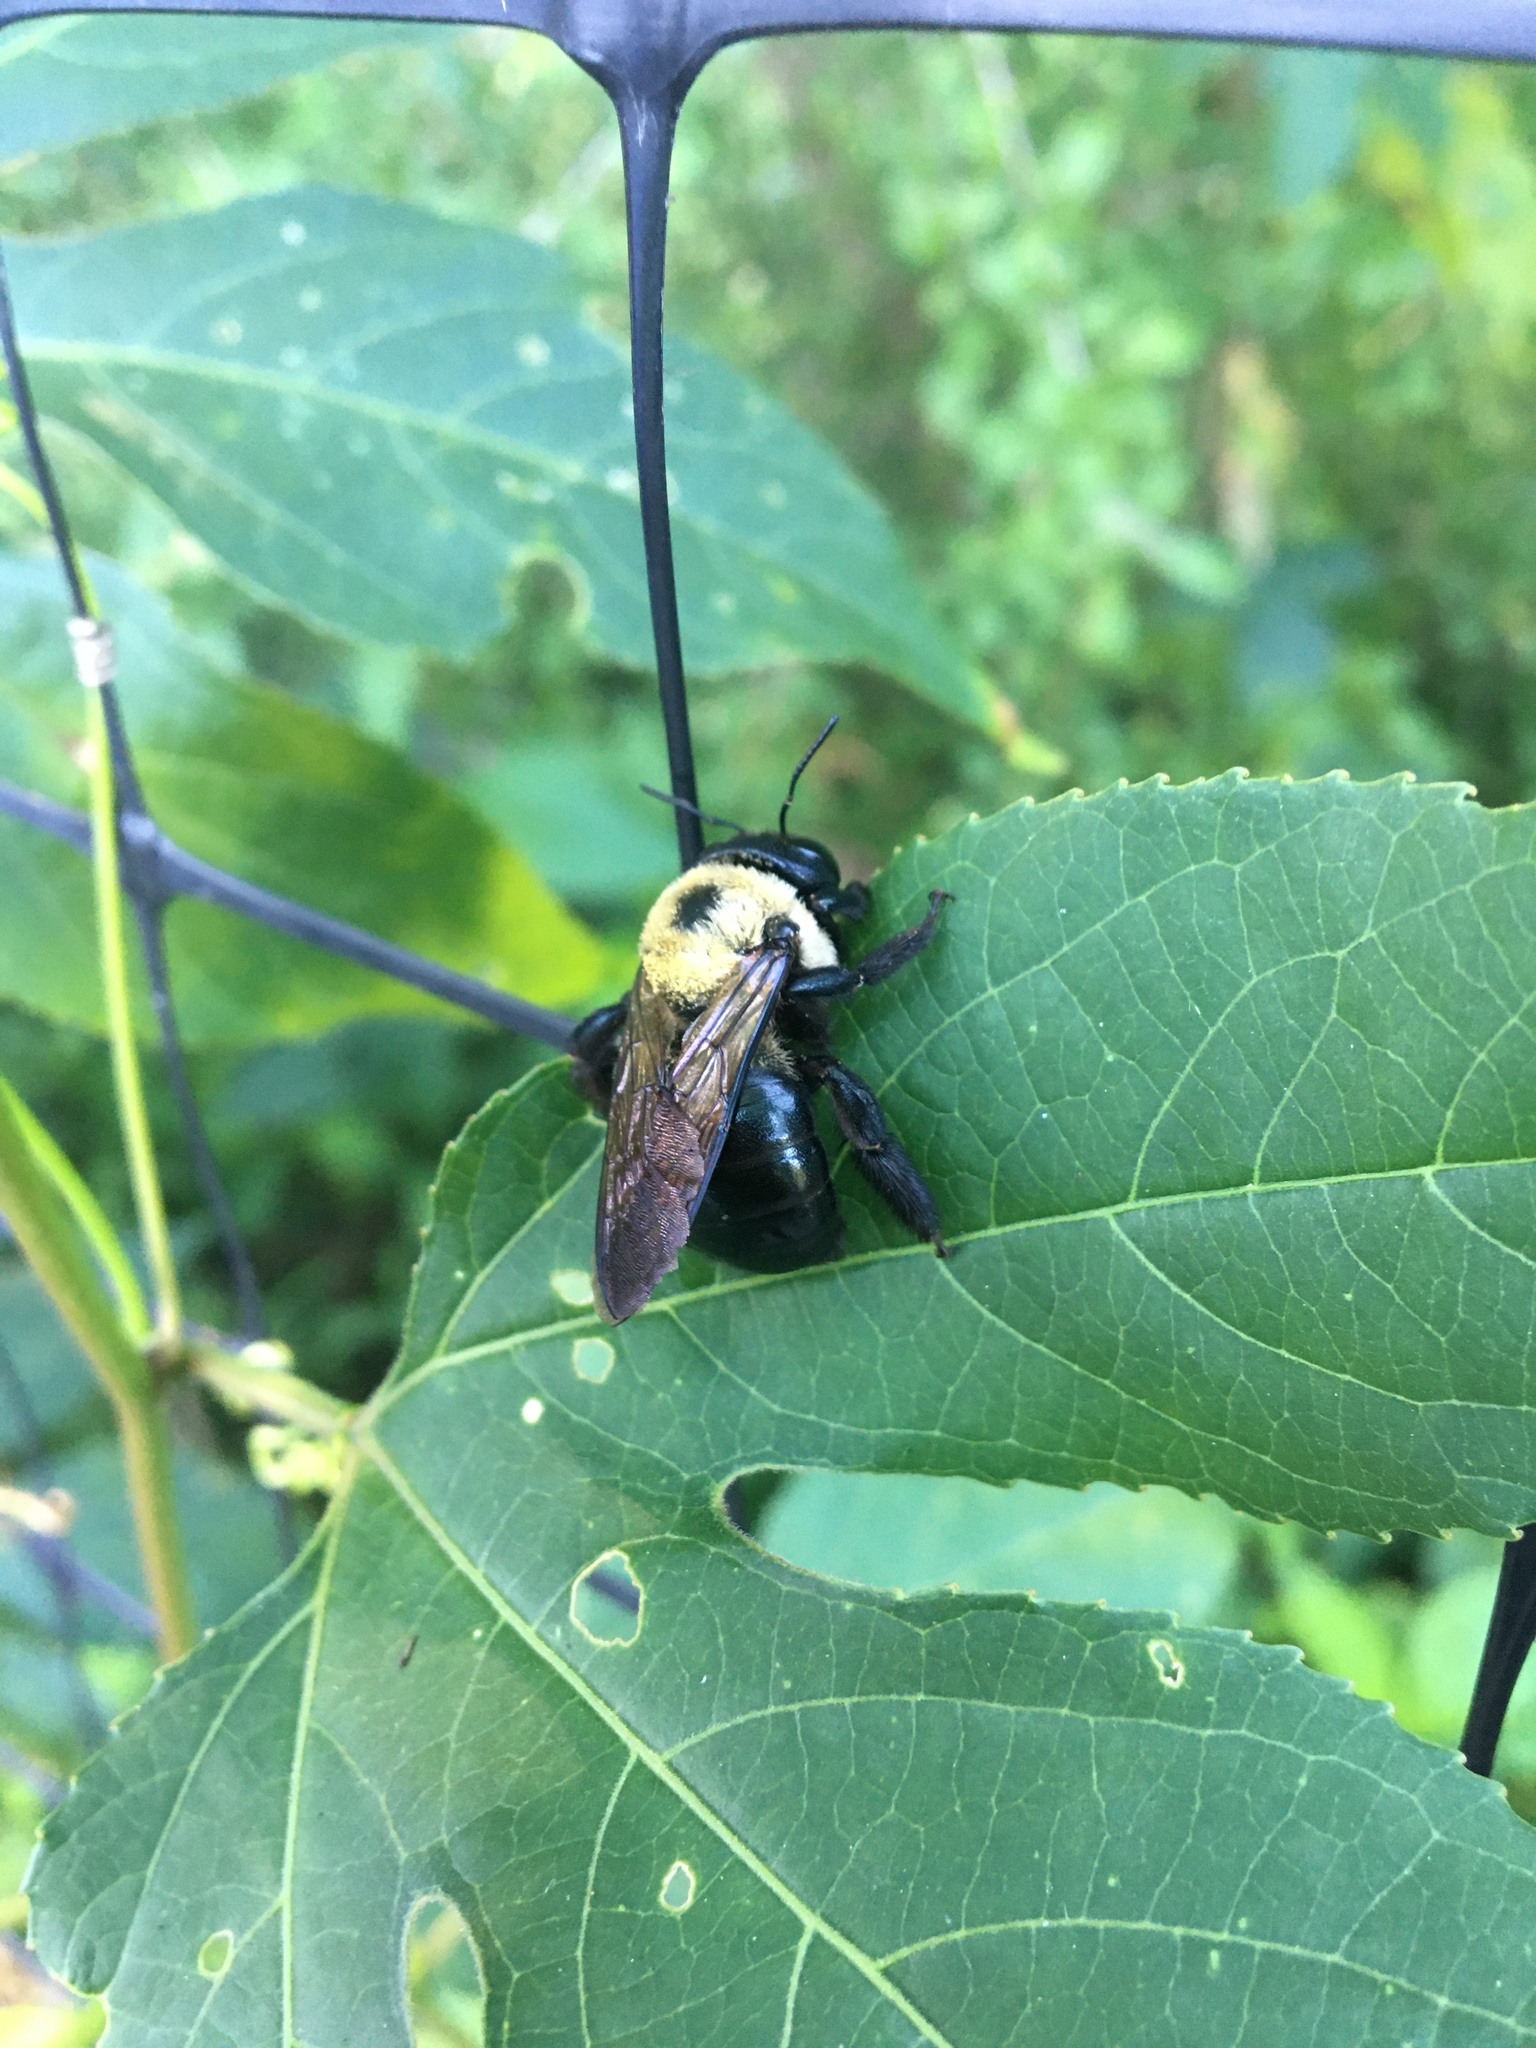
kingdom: Animalia
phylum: Arthropoda
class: Insecta
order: Hymenoptera
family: Apidae
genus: Xylocopa
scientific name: Xylocopa virginica
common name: Carpenter bee
